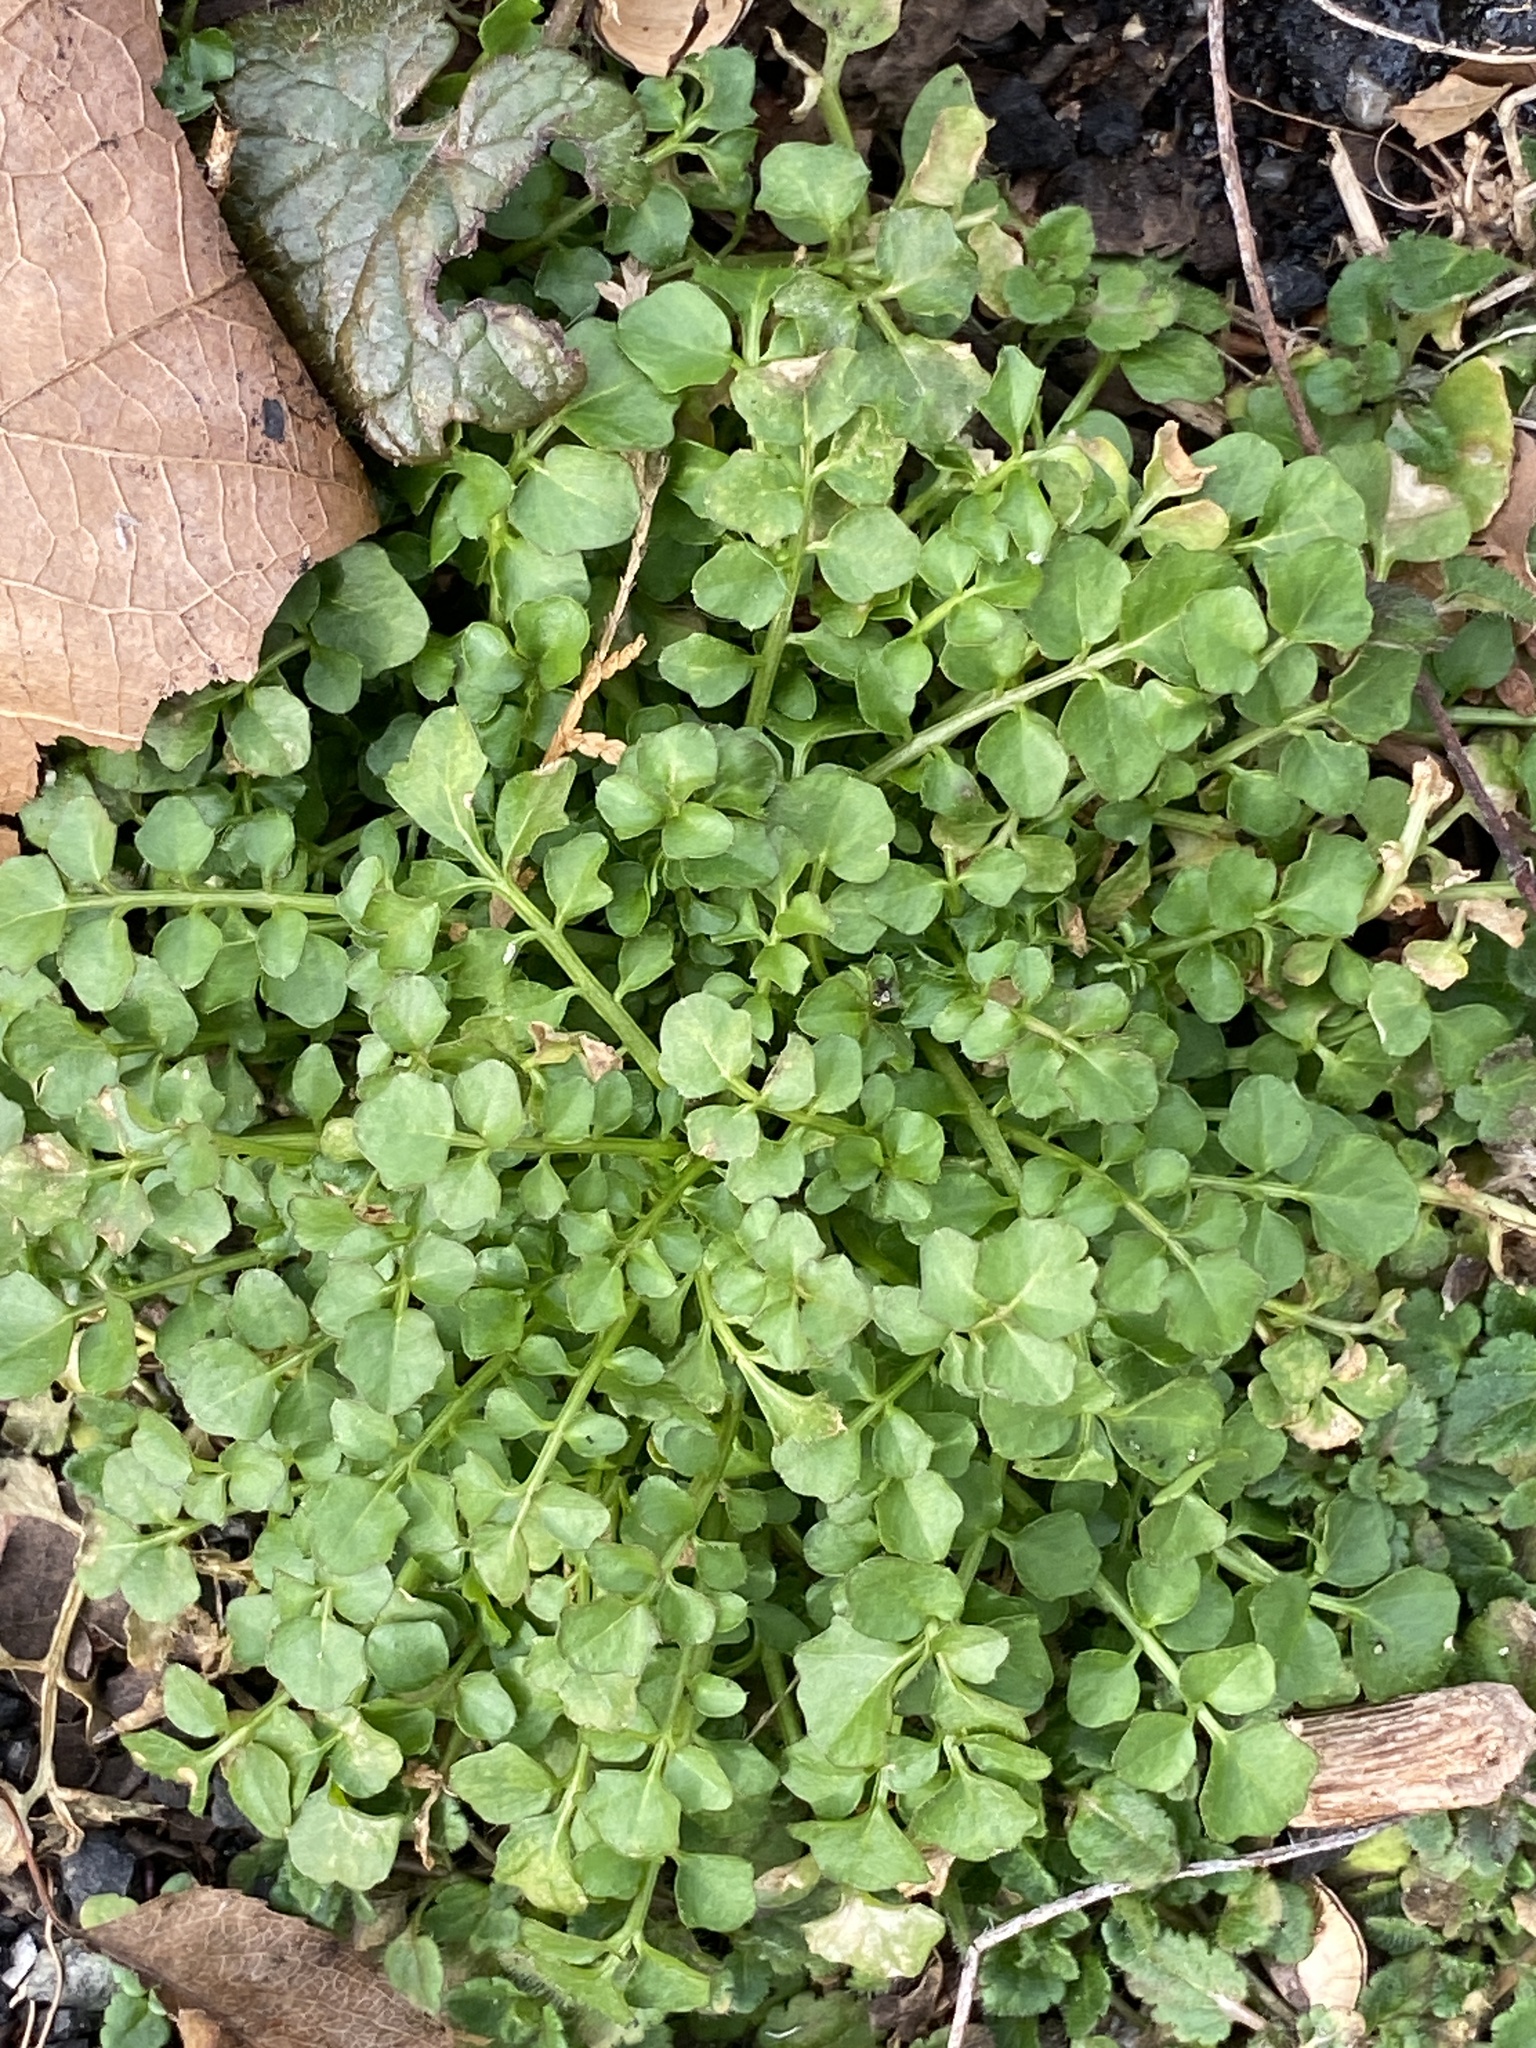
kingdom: Plantae
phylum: Tracheophyta
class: Magnoliopsida
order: Brassicales
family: Brassicaceae
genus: Cardamine
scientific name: Cardamine hirsuta
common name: Hairy bittercress
